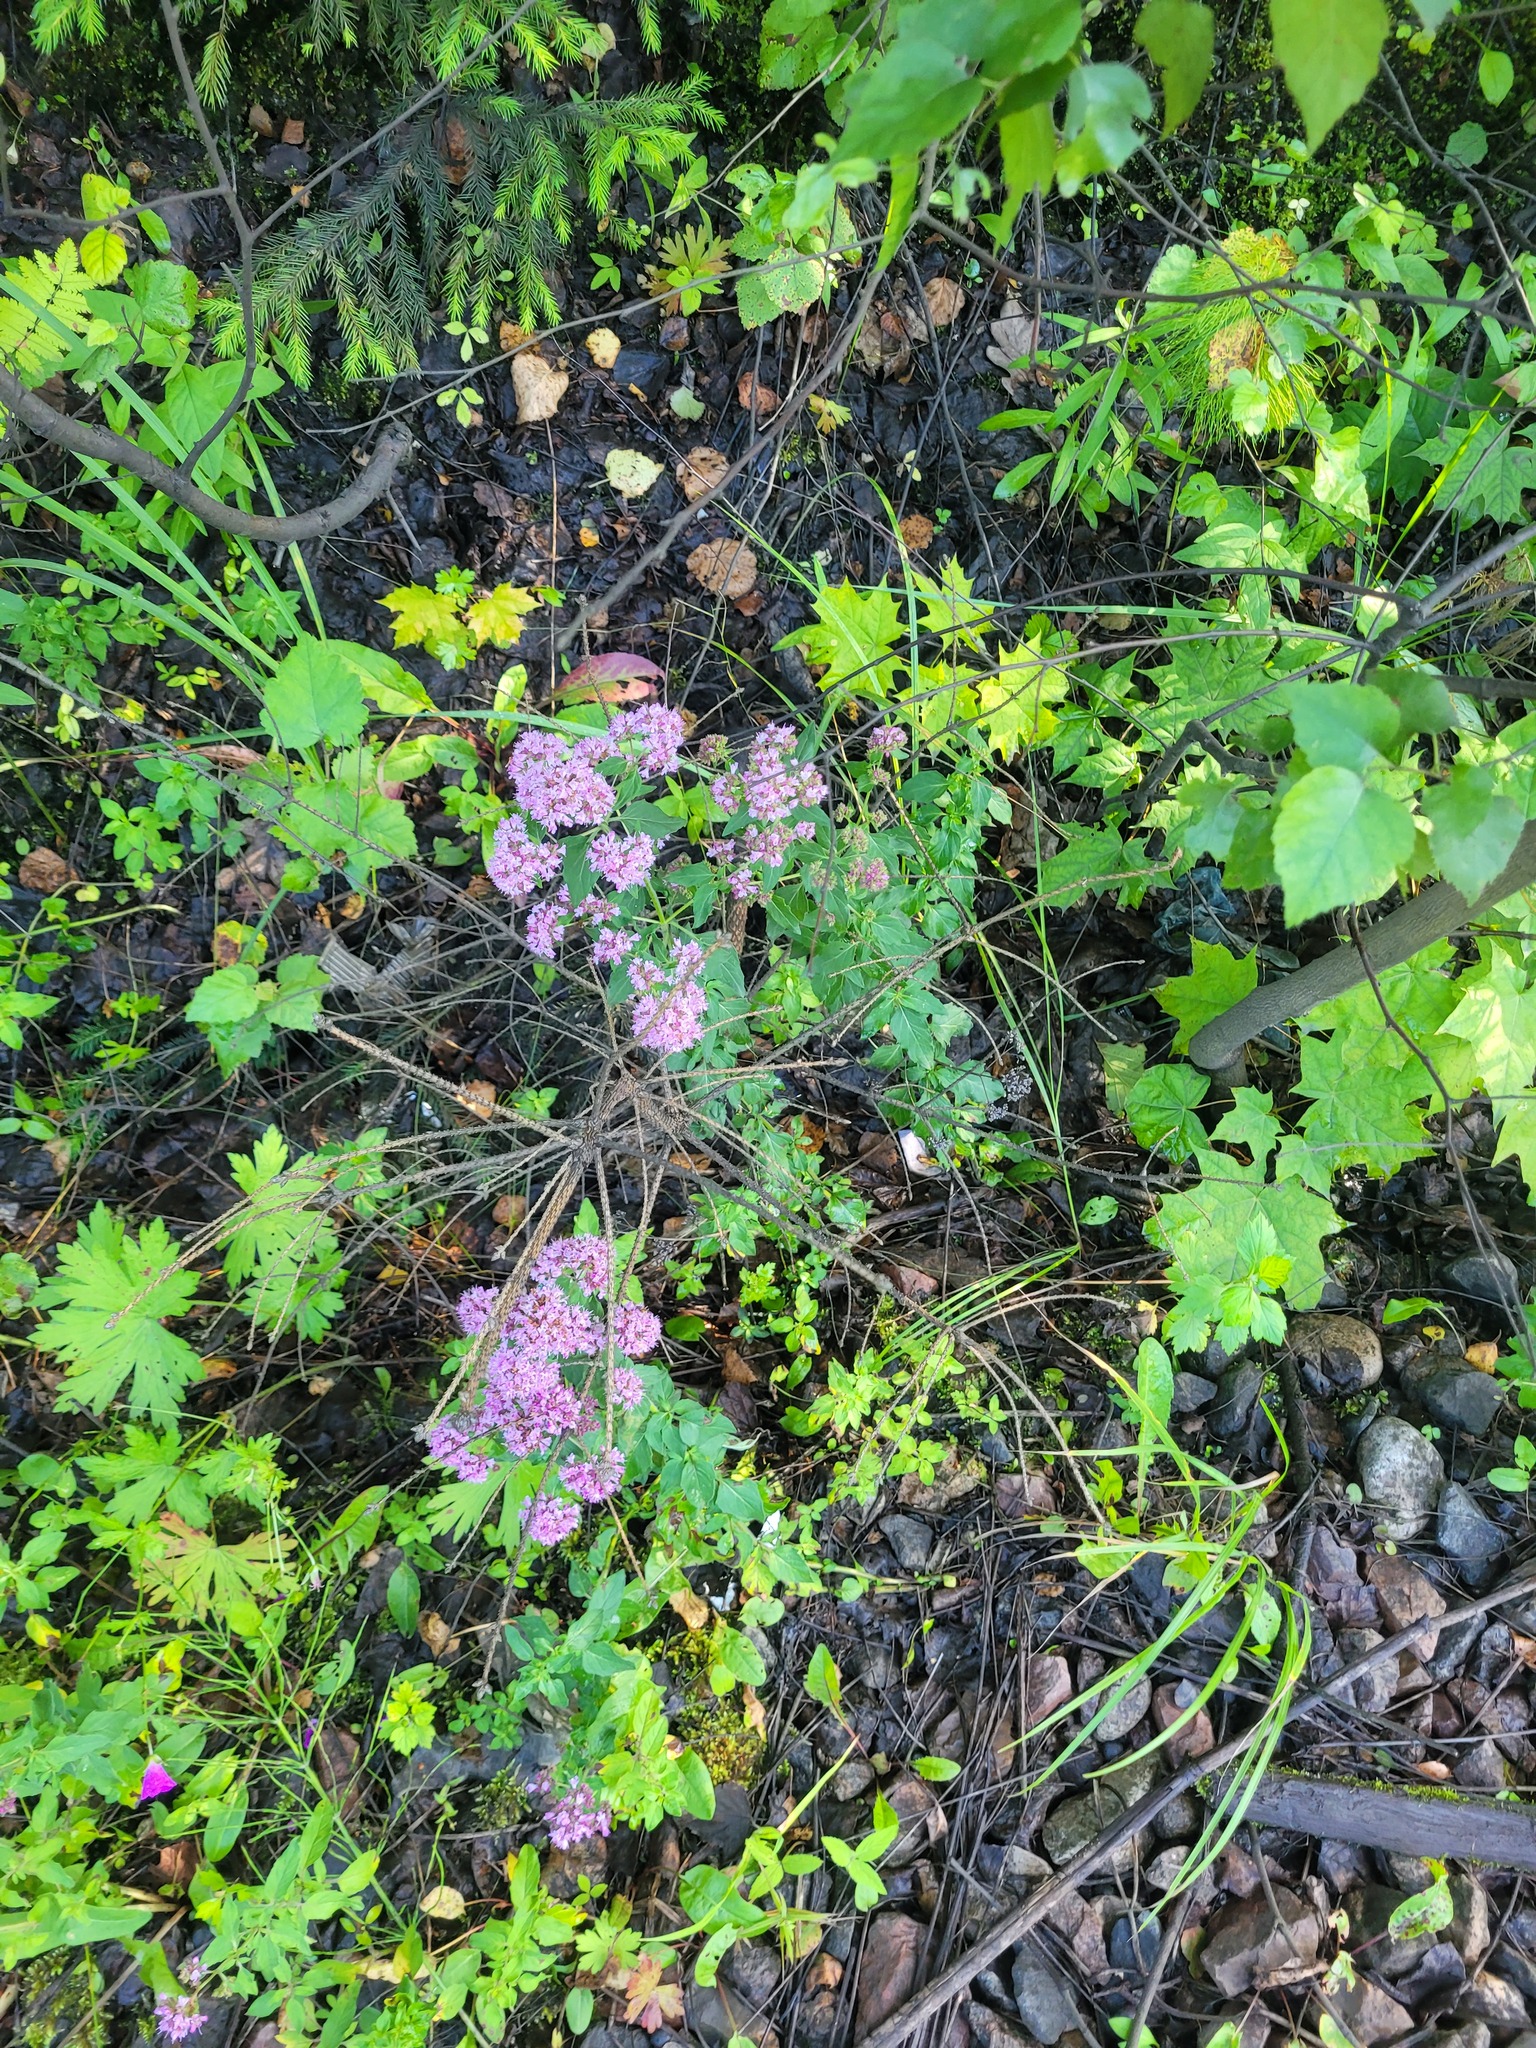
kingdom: Plantae
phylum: Tracheophyta
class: Magnoliopsida
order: Lamiales
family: Lamiaceae
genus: Origanum
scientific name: Origanum vulgare
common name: Wild marjoram
